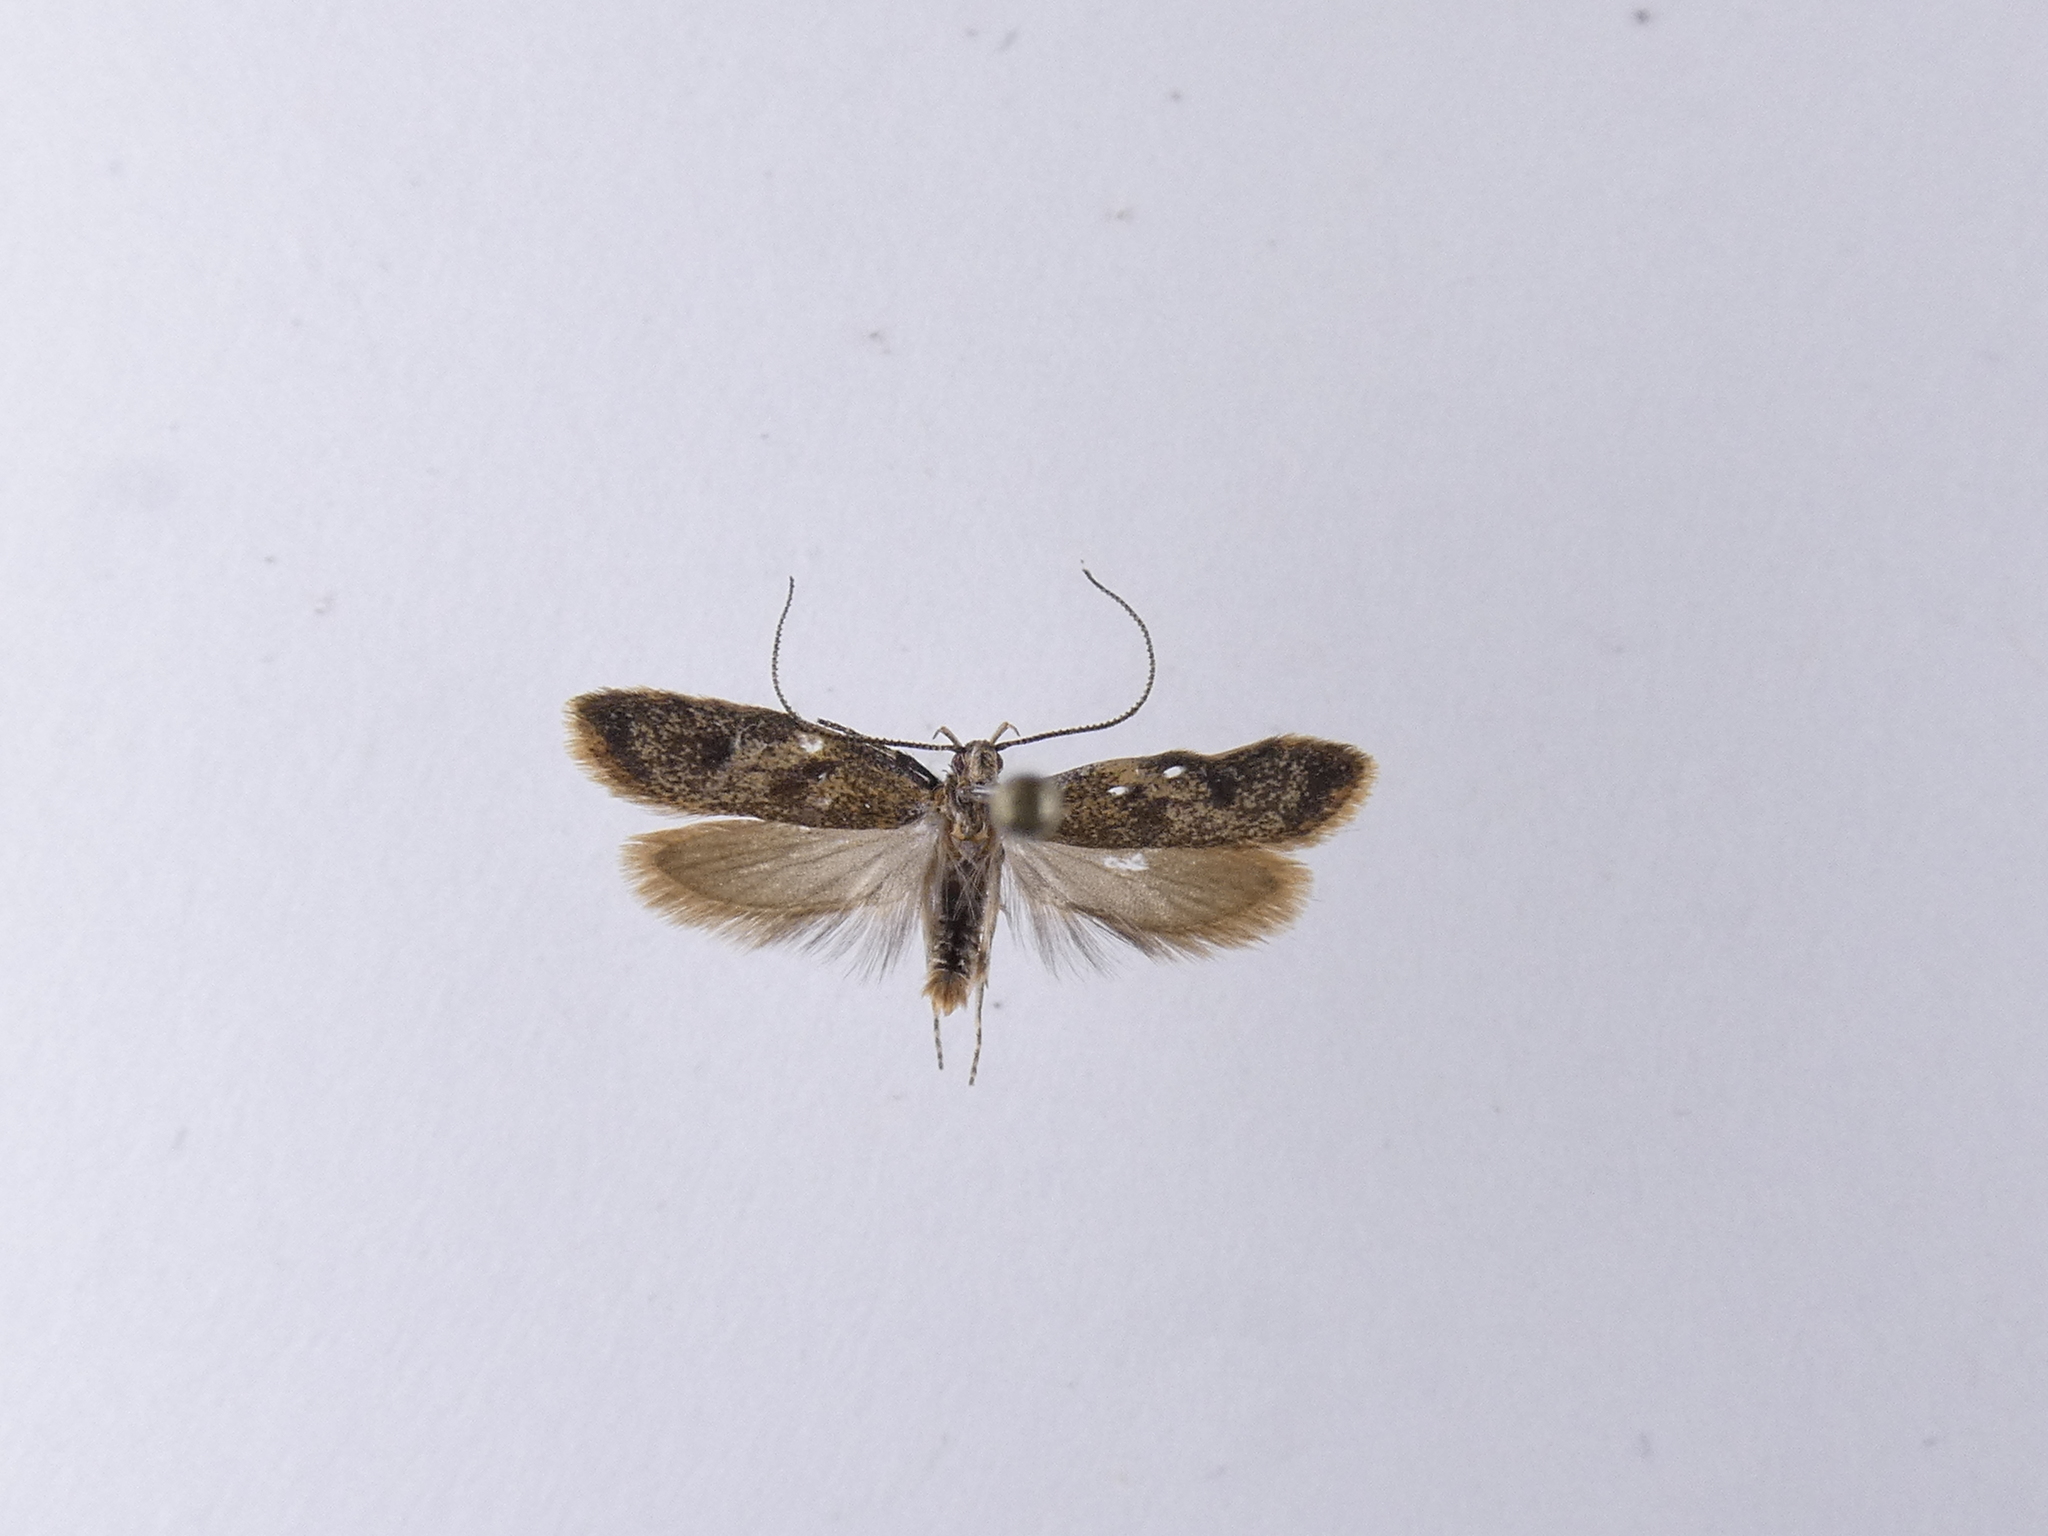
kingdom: Animalia
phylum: Arthropoda
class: Insecta
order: Lepidoptera
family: Oecophoridae
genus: Gymnobathra
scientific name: Gymnobathra tholodella
